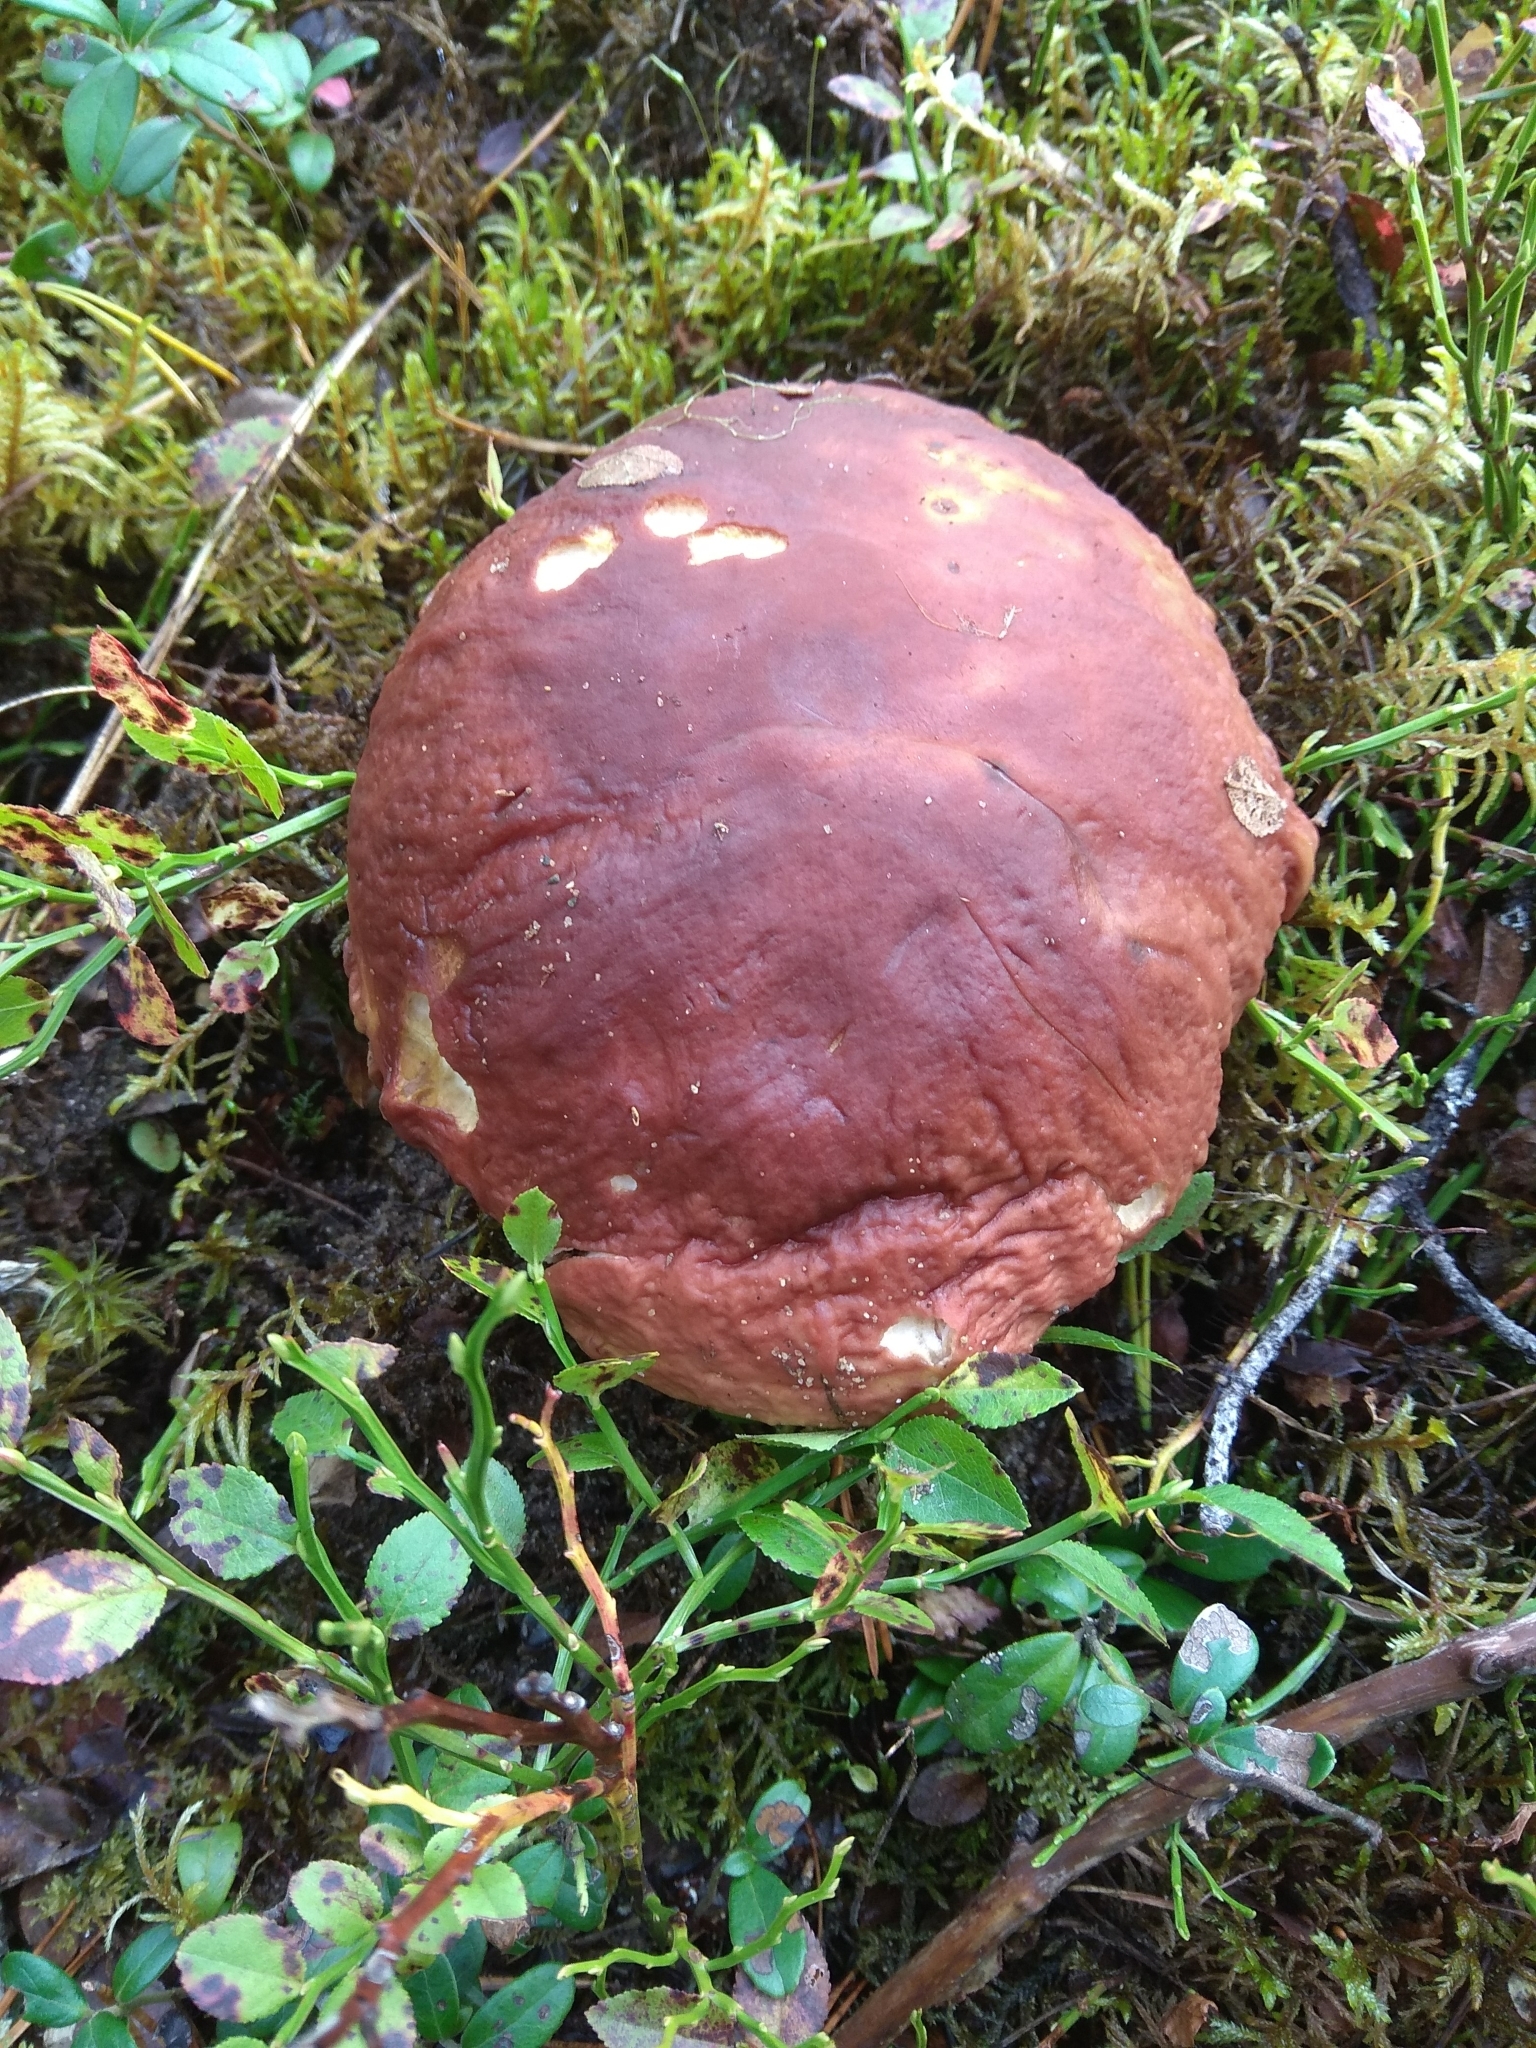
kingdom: Fungi
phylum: Basidiomycota
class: Agaricomycetes
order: Boletales
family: Boletaceae
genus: Boletus
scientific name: Boletus edulis
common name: Cep
